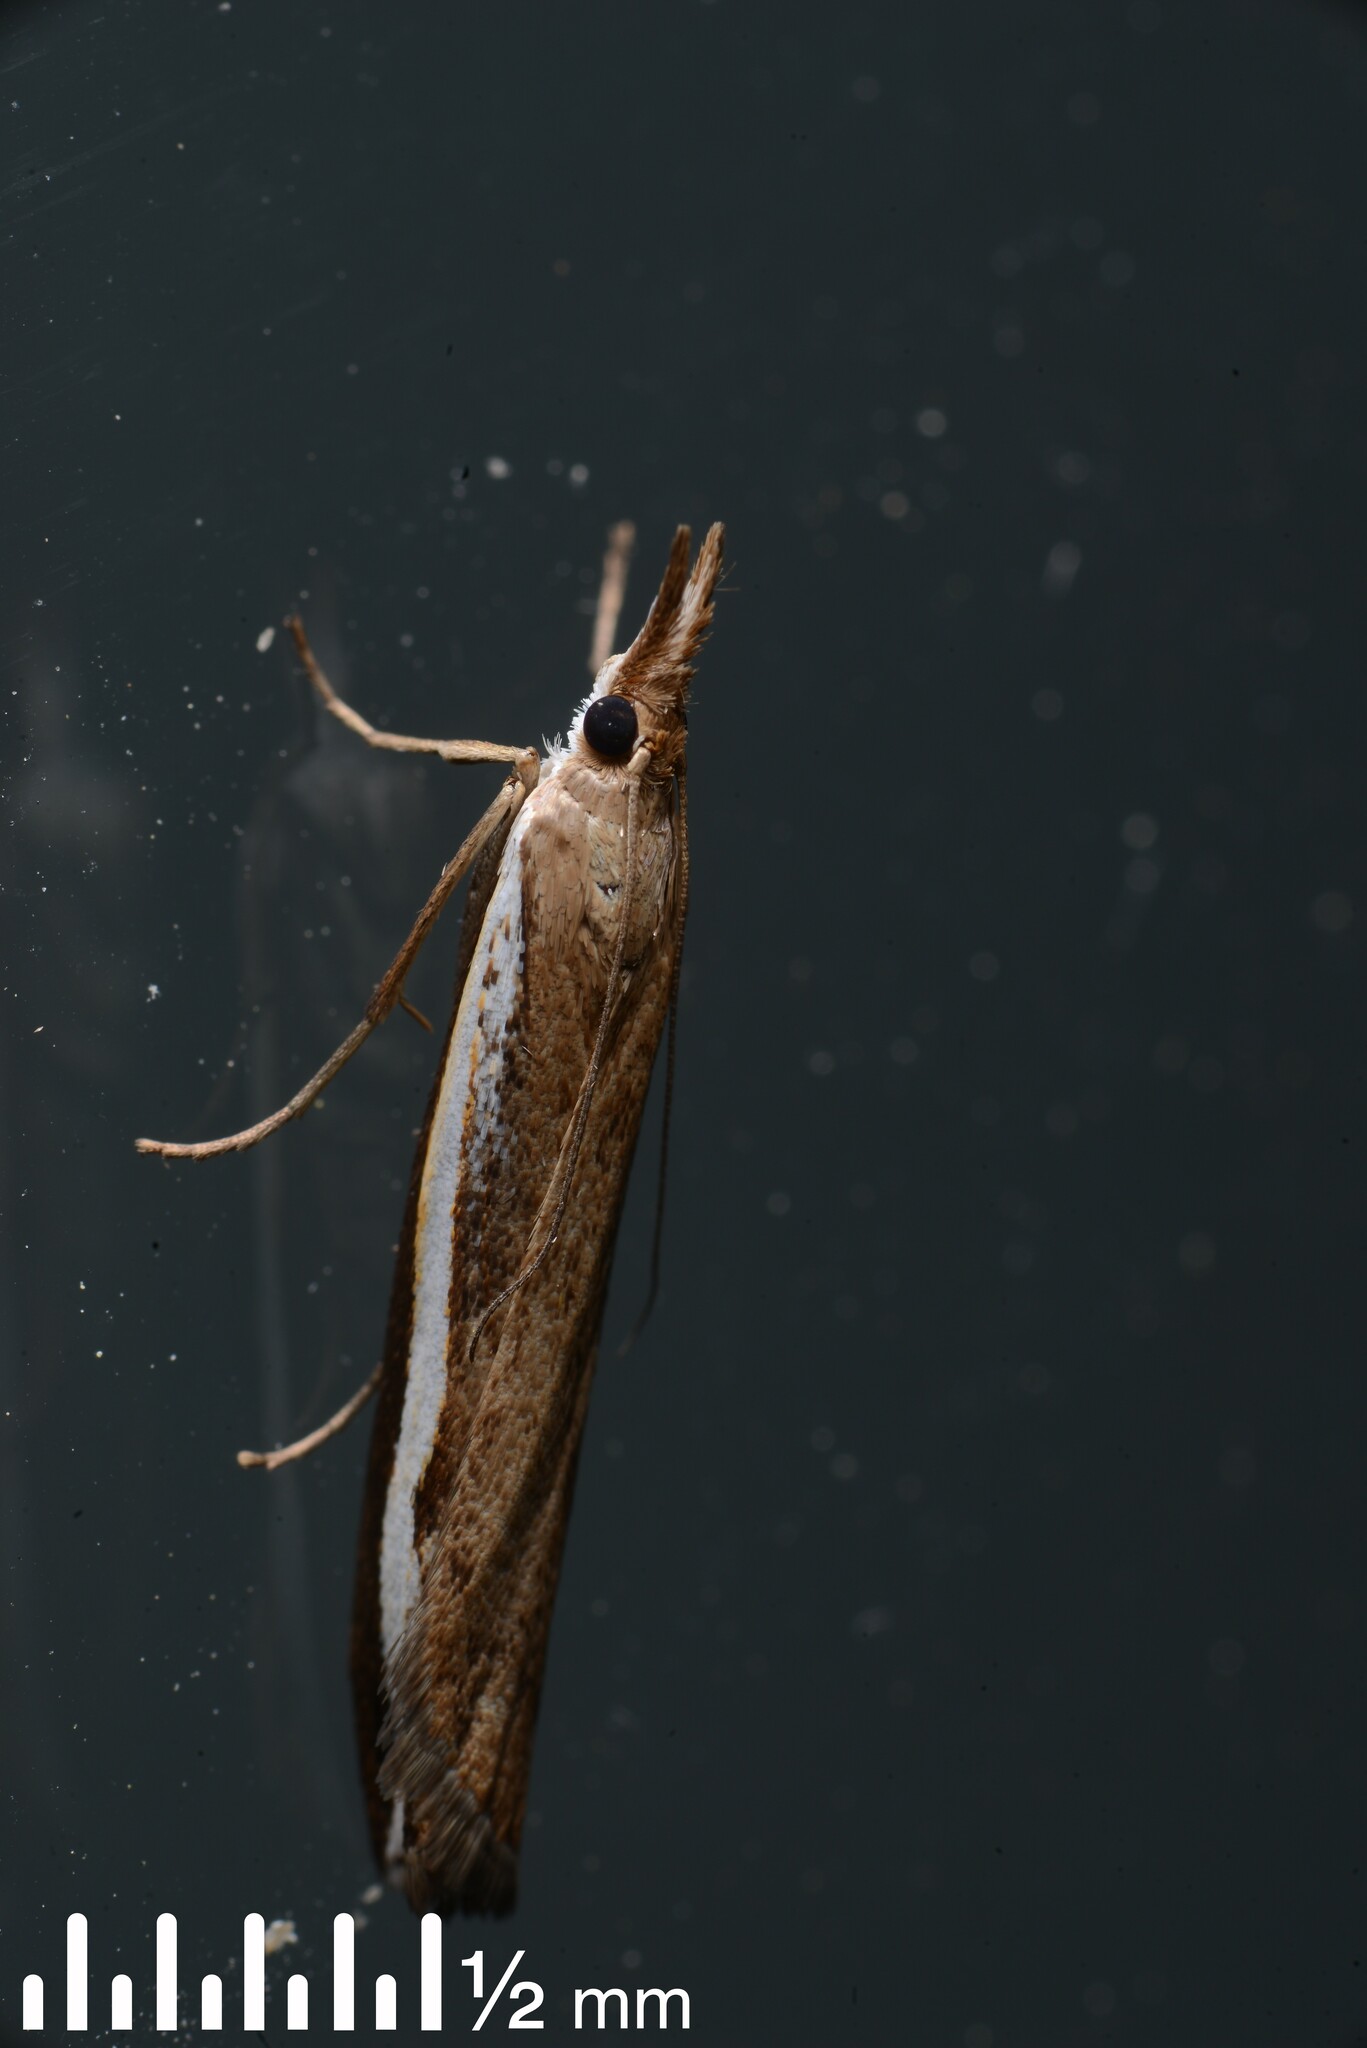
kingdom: Animalia
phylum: Arthropoda
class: Insecta
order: Lepidoptera
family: Crambidae
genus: Orocrambus
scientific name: Orocrambus flexuosellus
